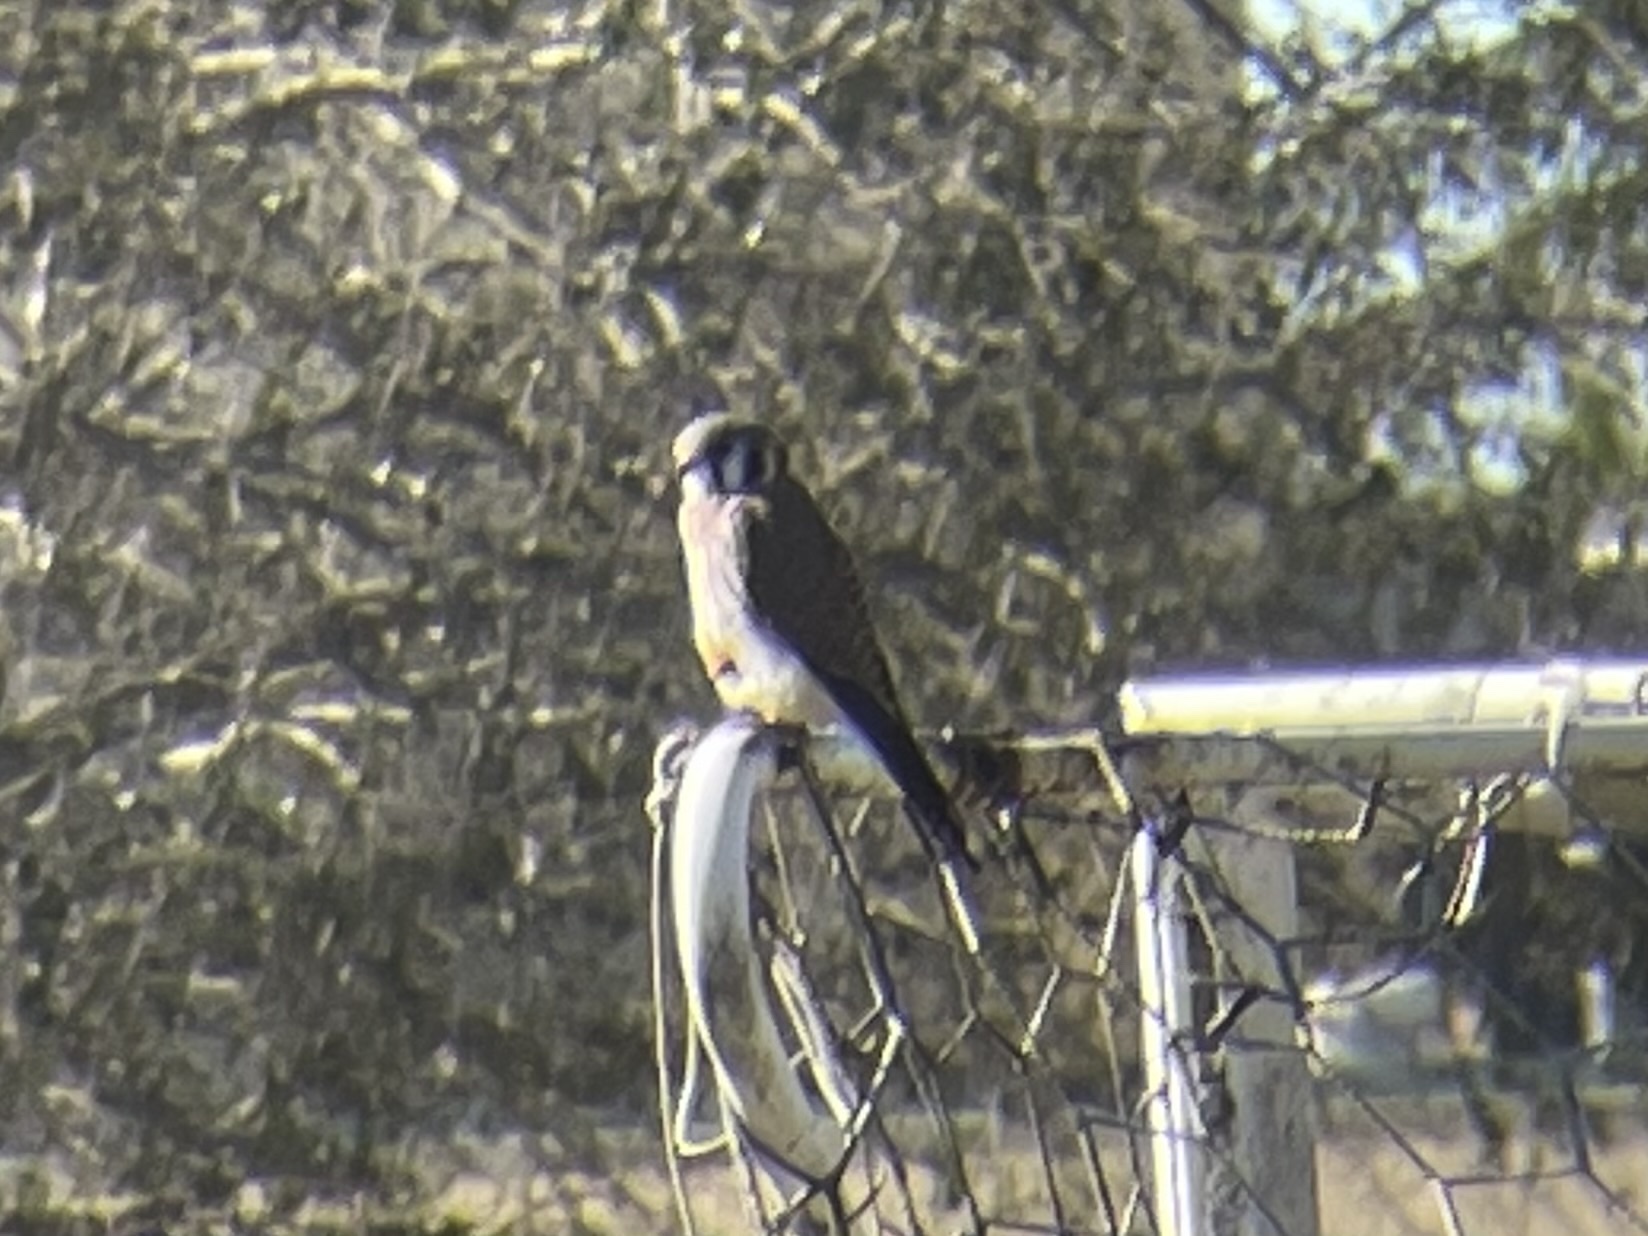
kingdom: Animalia
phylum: Chordata
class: Aves
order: Falconiformes
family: Falconidae
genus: Falco
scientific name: Falco sparverius
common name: American kestrel
